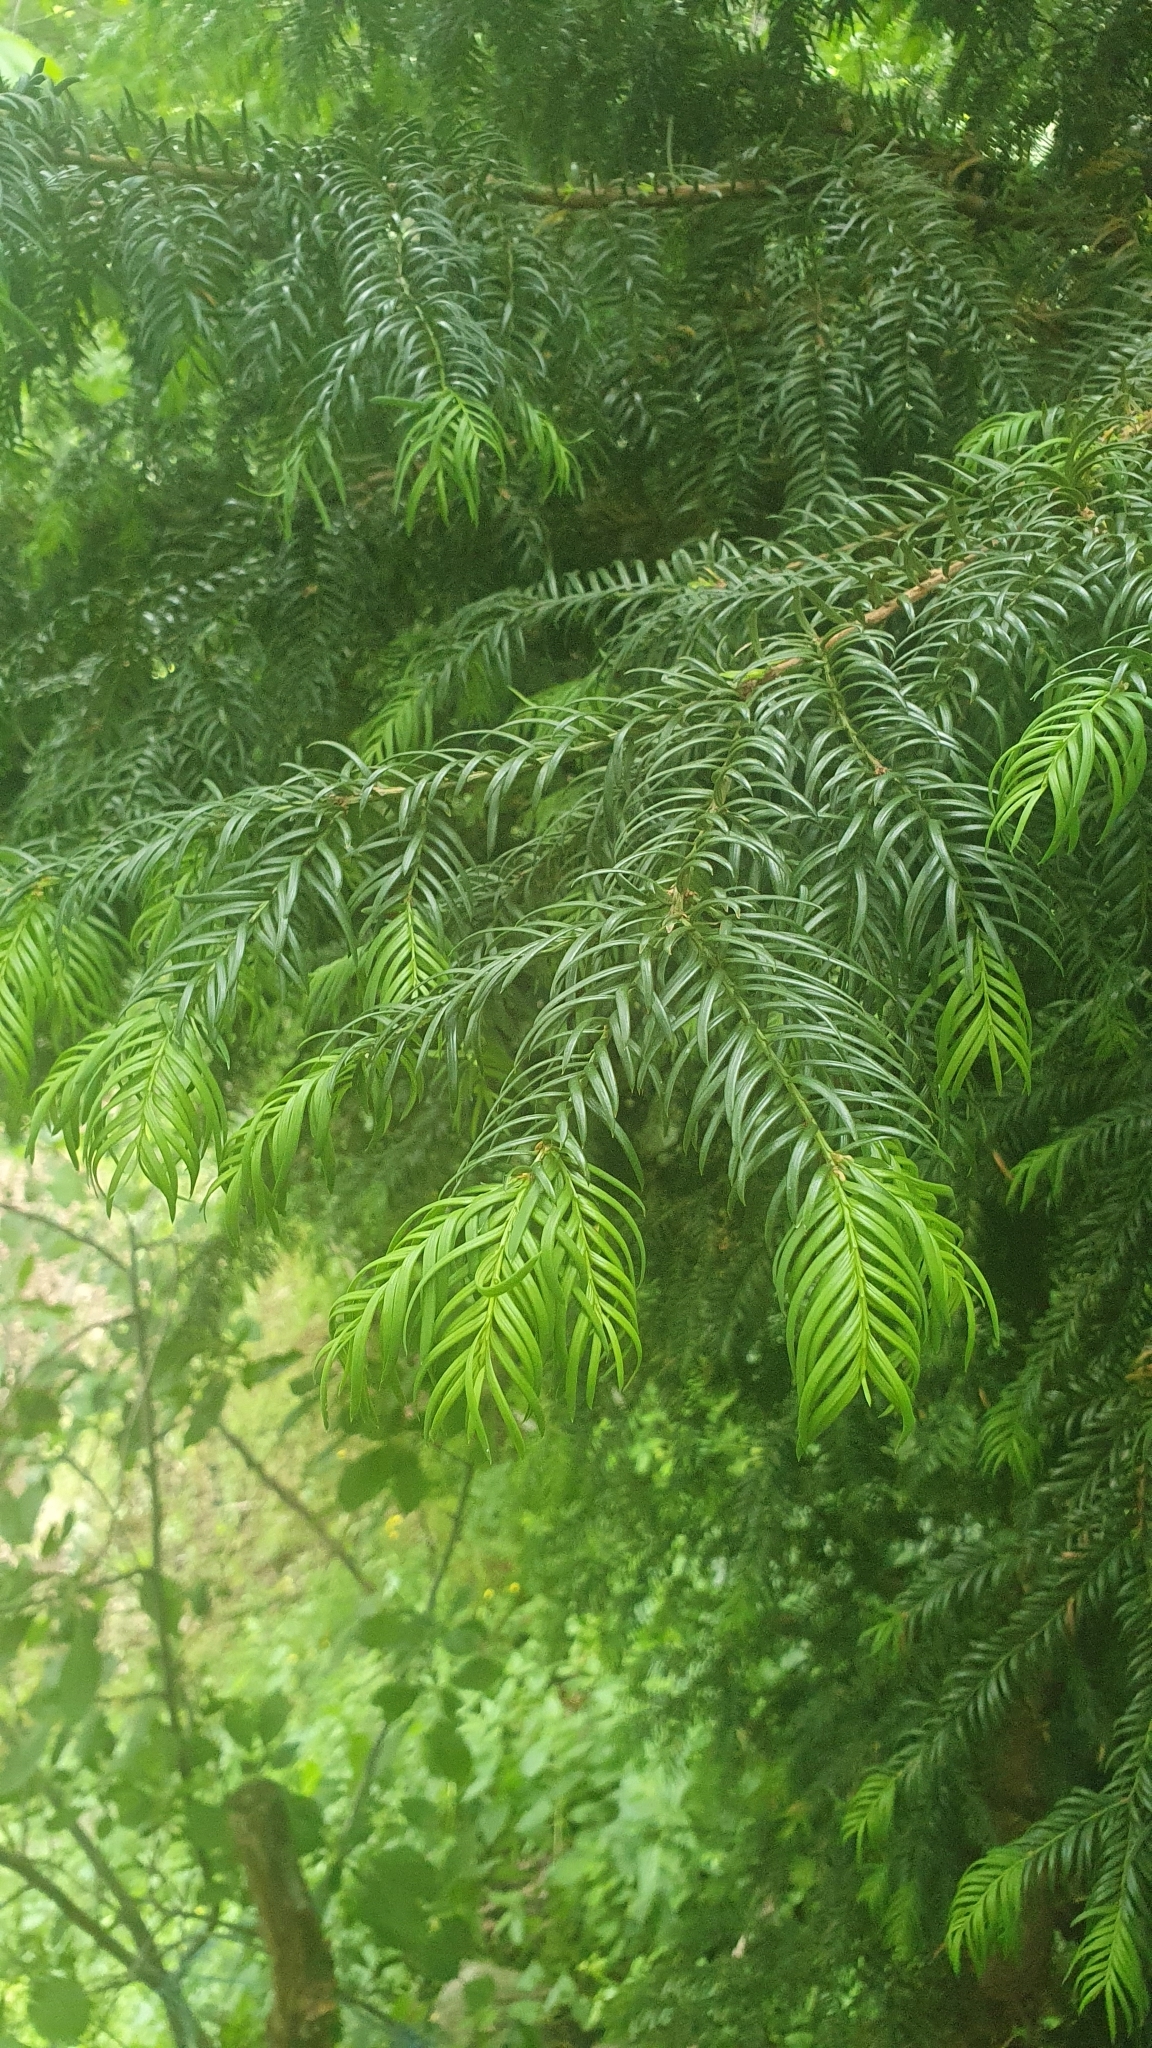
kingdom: Plantae
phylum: Tracheophyta
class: Pinopsida
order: Pinales
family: Taxaceae
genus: Taxus
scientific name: Taxus baccata
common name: Yew
